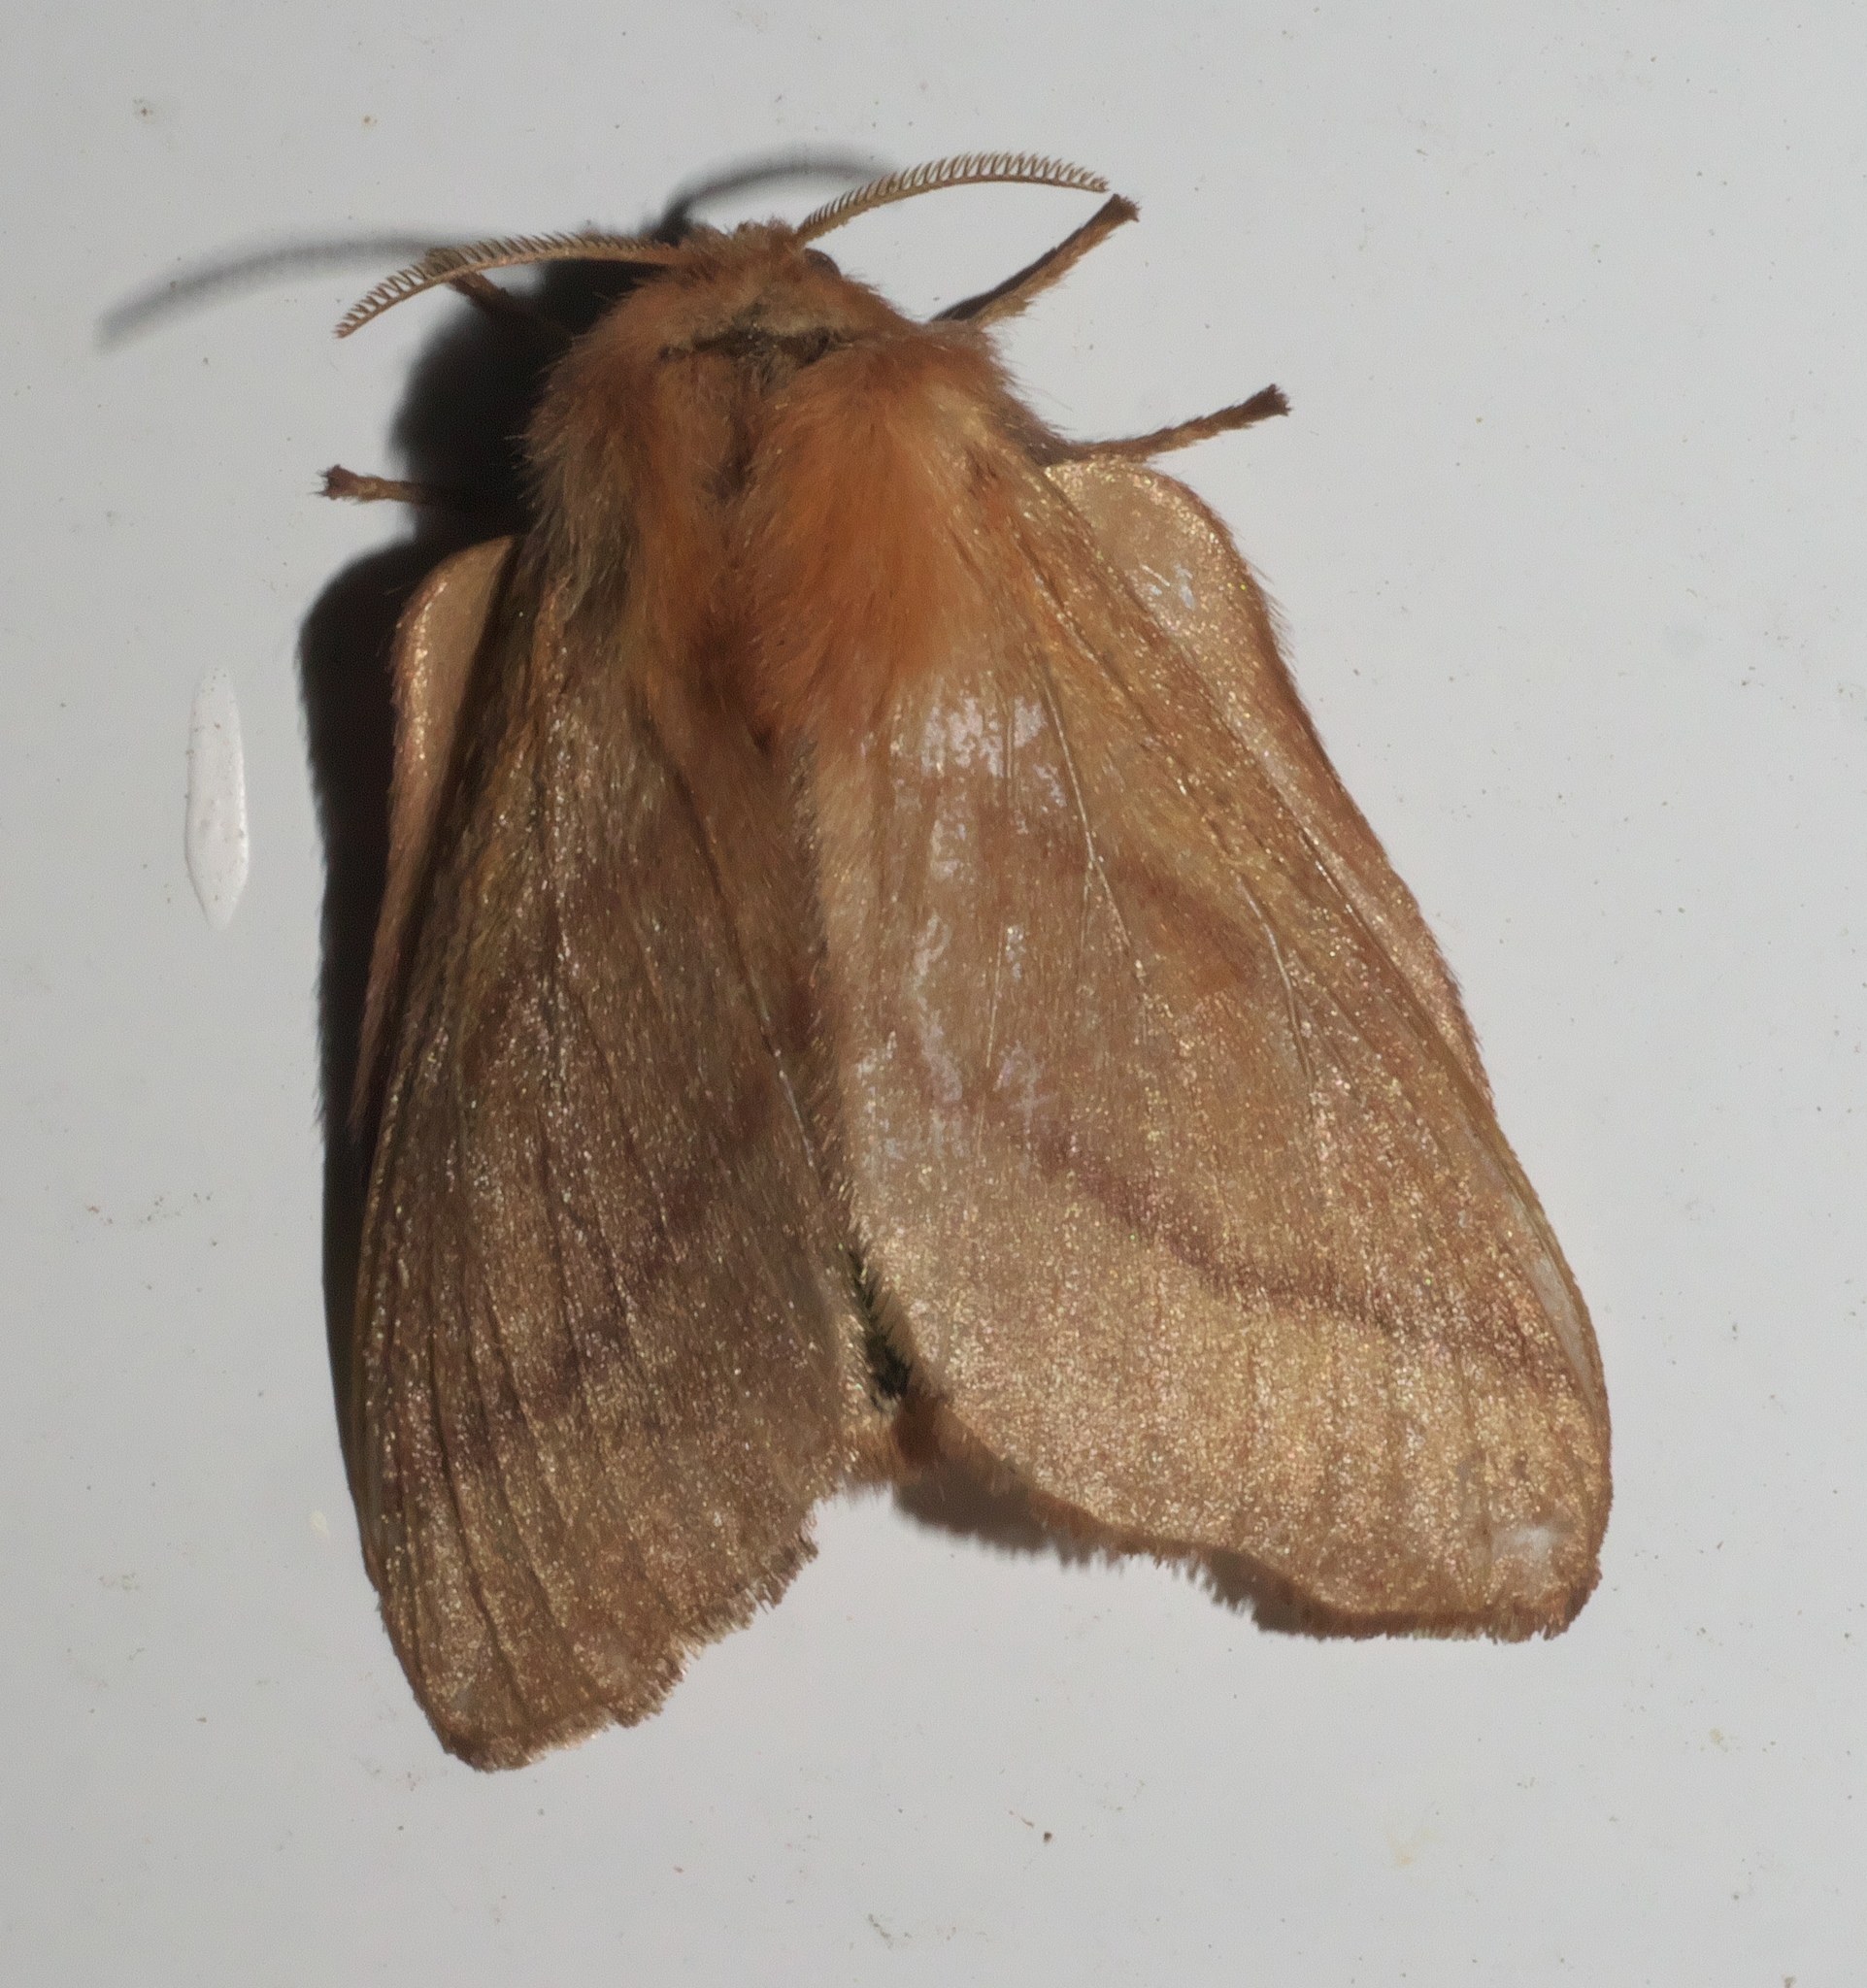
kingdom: Animalia
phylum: Arthropoda
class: Insecta
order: Lepidoptera
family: Lasiocampidae
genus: Malacosoma
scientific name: Malacosoma disstria
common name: Forest tent caterpillar
